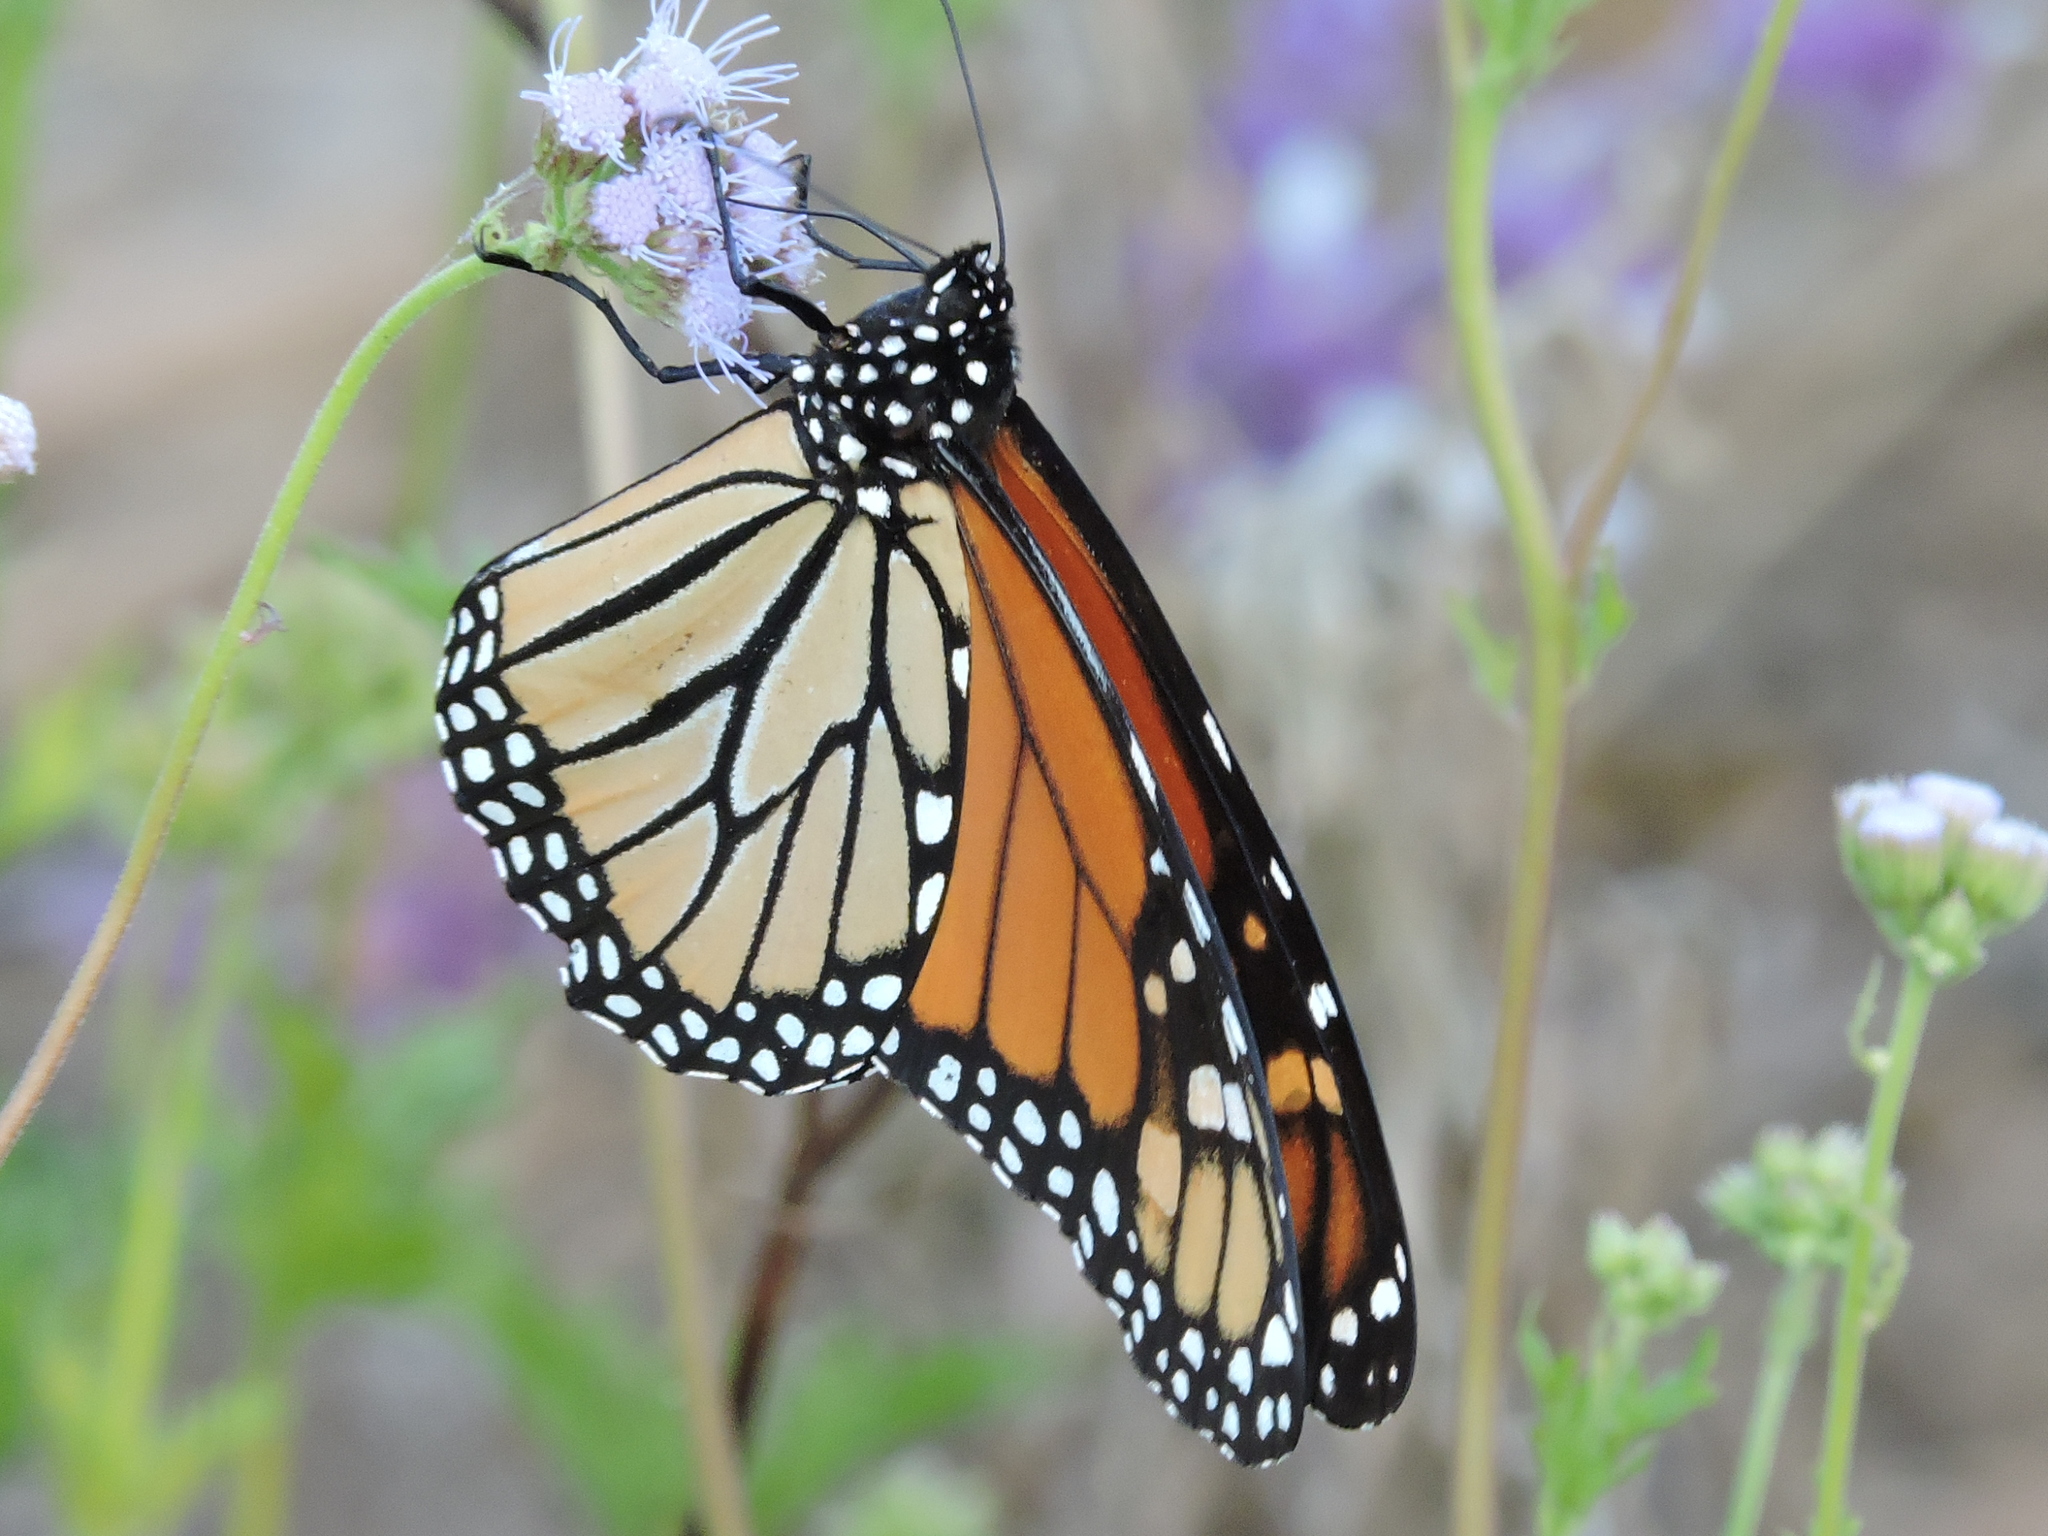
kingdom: Animalia
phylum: Arthropoda
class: Insecta
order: Lepidoptera
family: Nymphalidae
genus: Danaus
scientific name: Danaus plexippus
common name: Monarch
